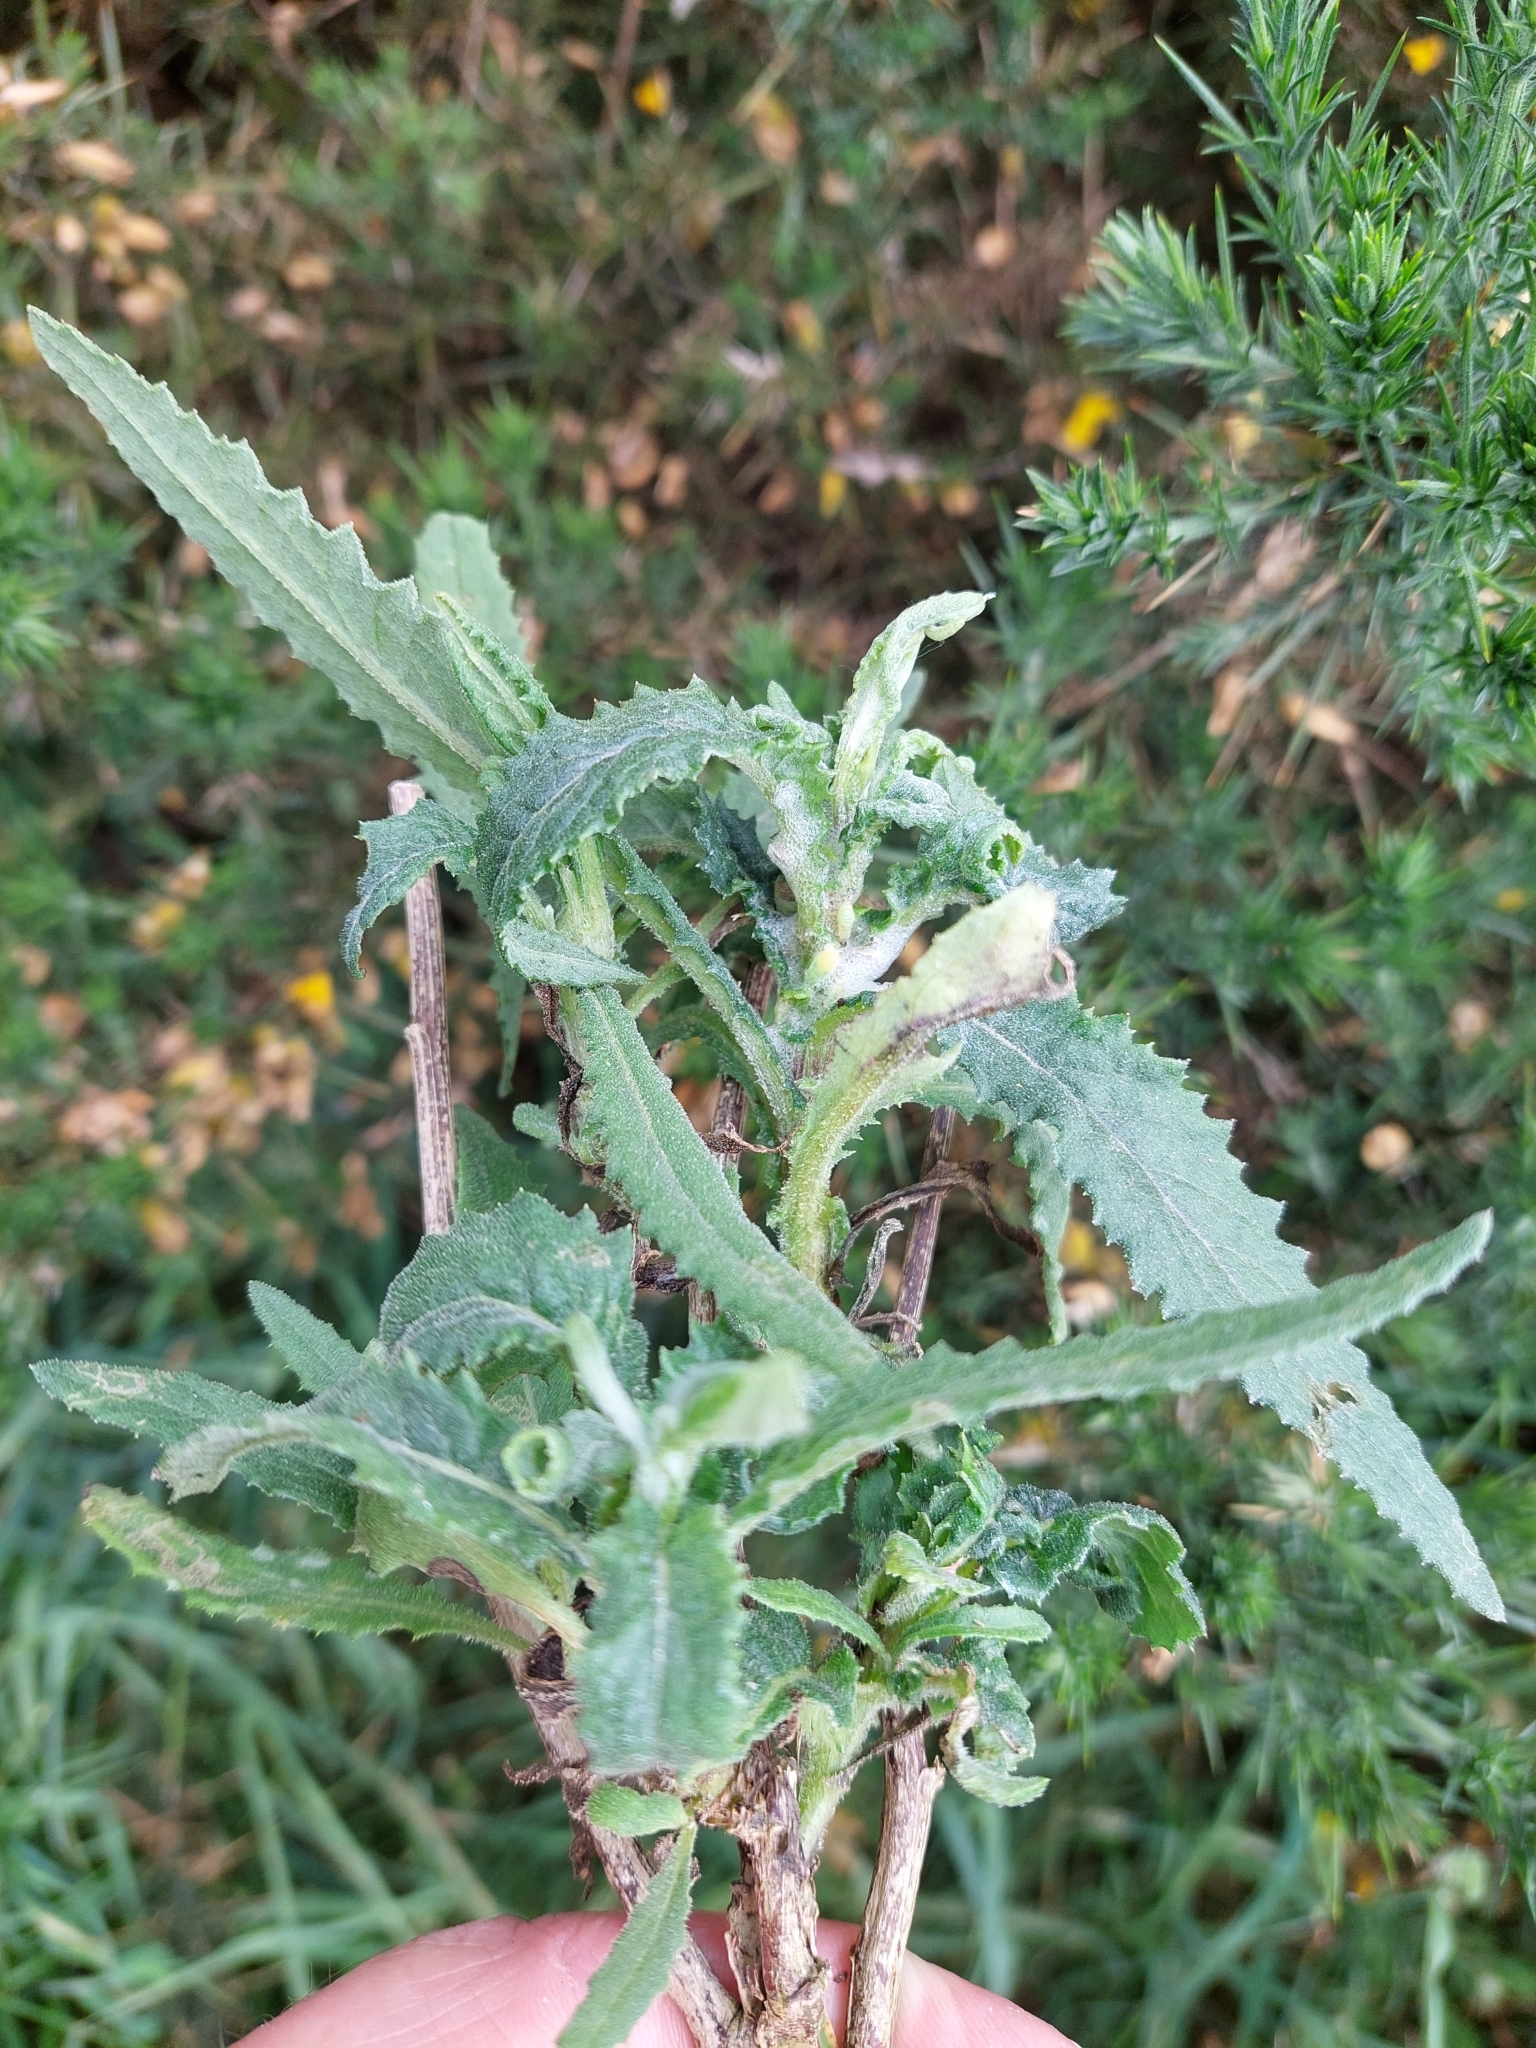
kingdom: Plantae
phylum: Tracheophyta
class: Magnoliopsida
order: Asterales
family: Asteraceae
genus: Senecio
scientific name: Senecio minimus
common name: Toothed fireweed
